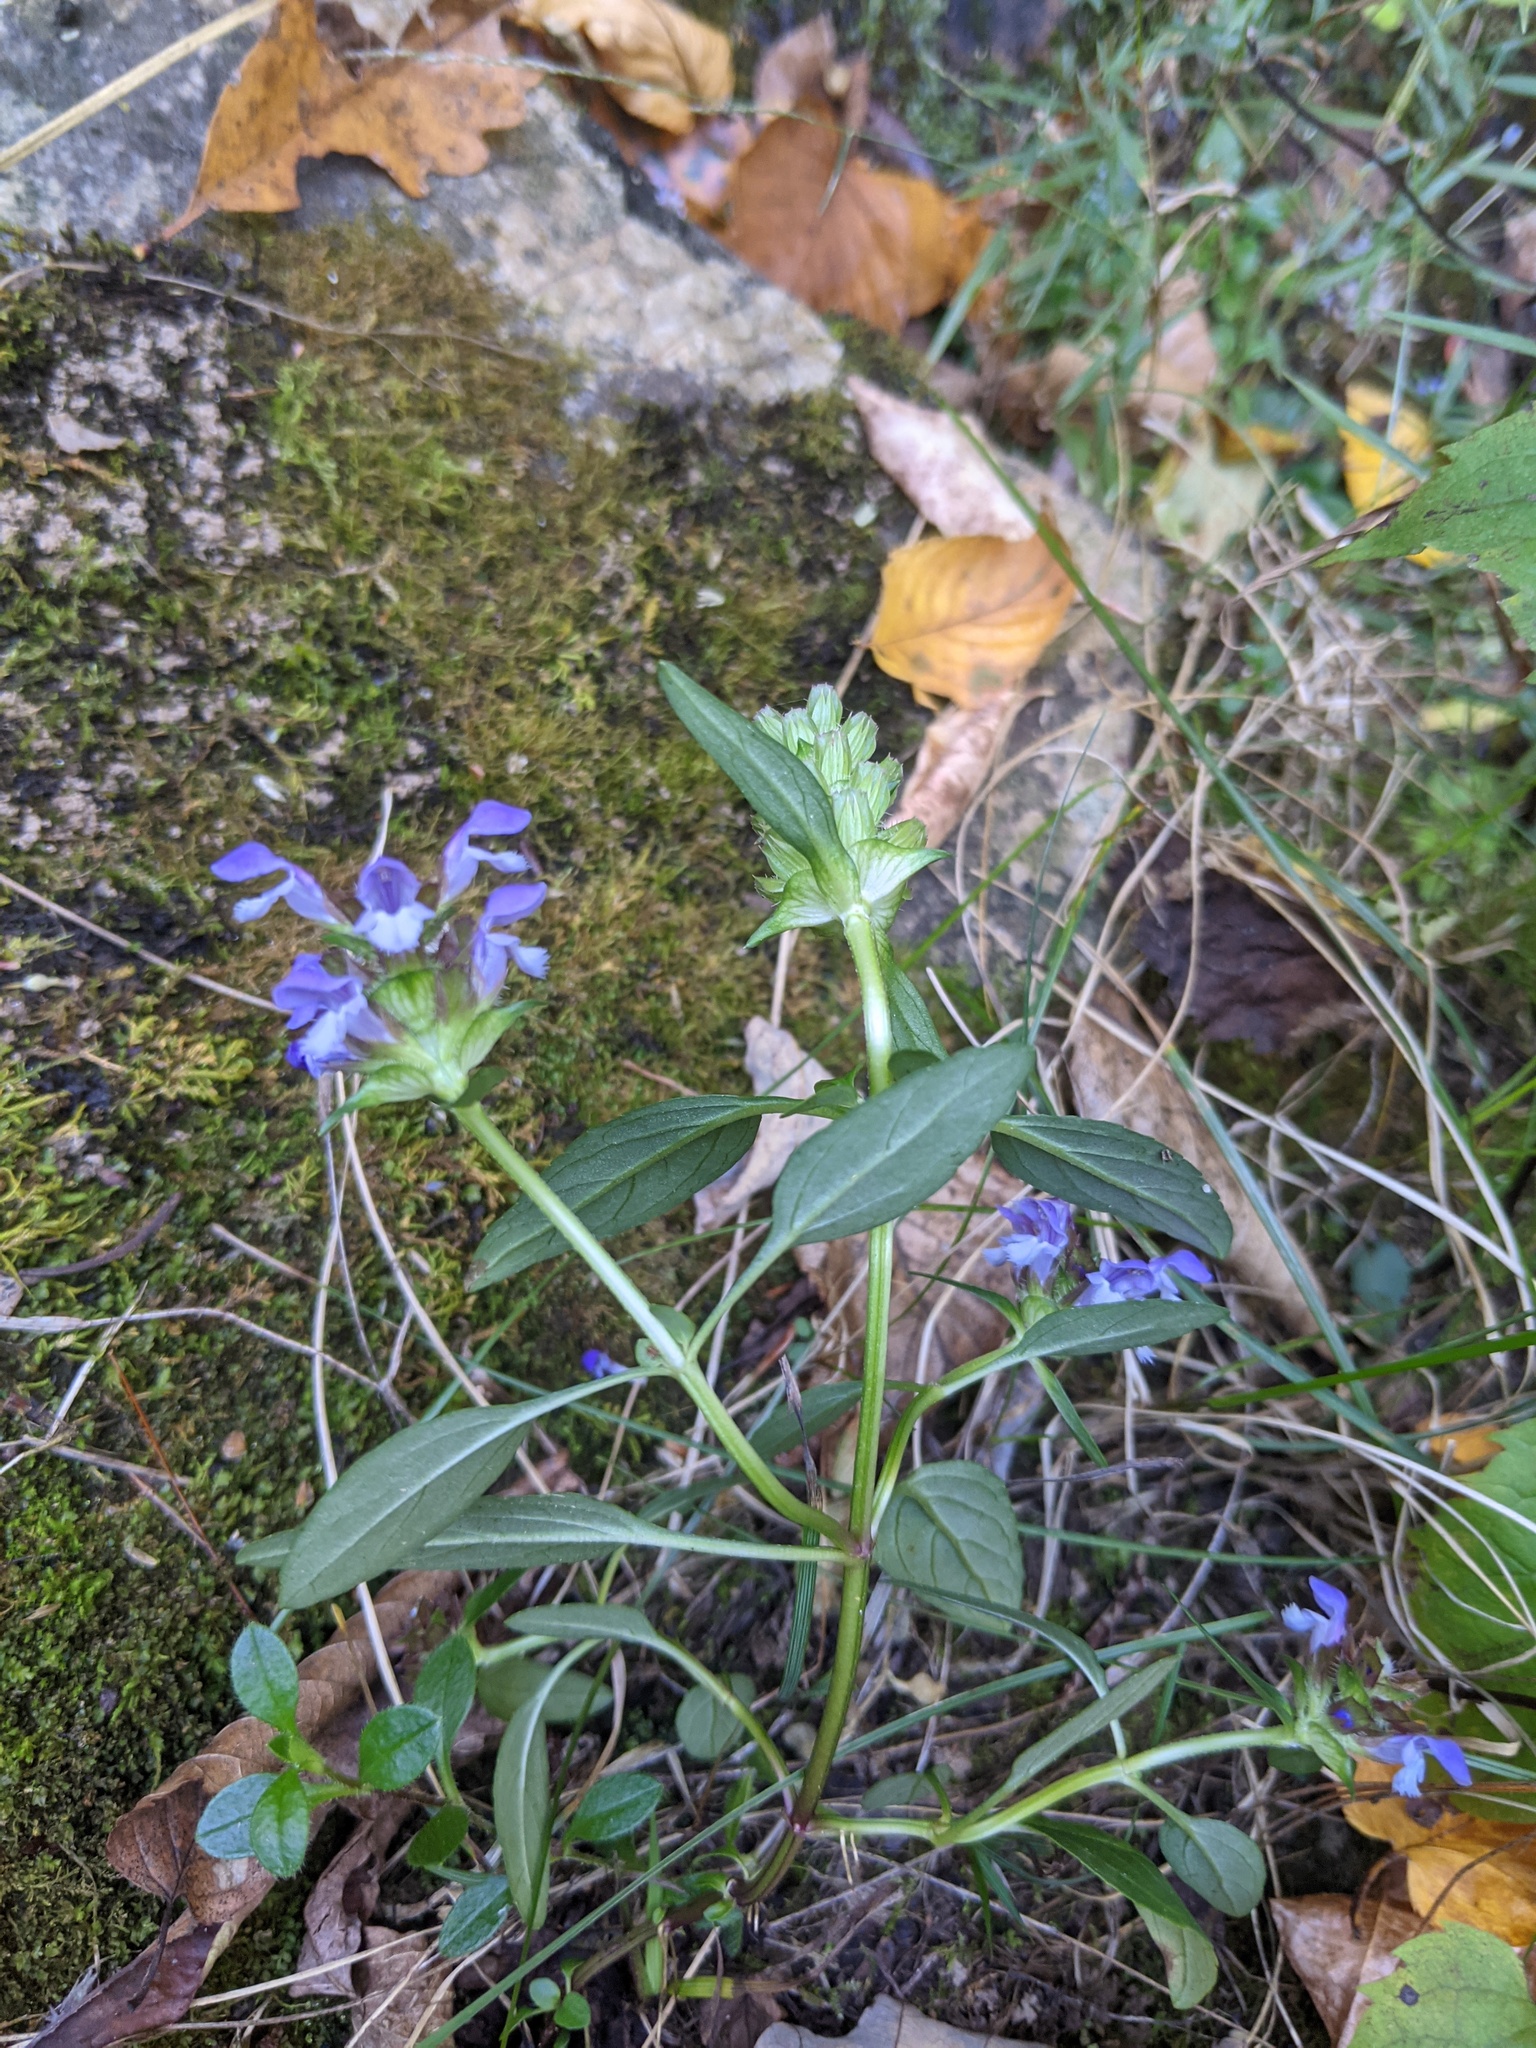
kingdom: Plantae
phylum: Tracheophyta
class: Magnoliopsida
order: Lamiales
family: Lamiaceae
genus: Prunella
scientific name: Prunella vulgaris
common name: Heal-all
